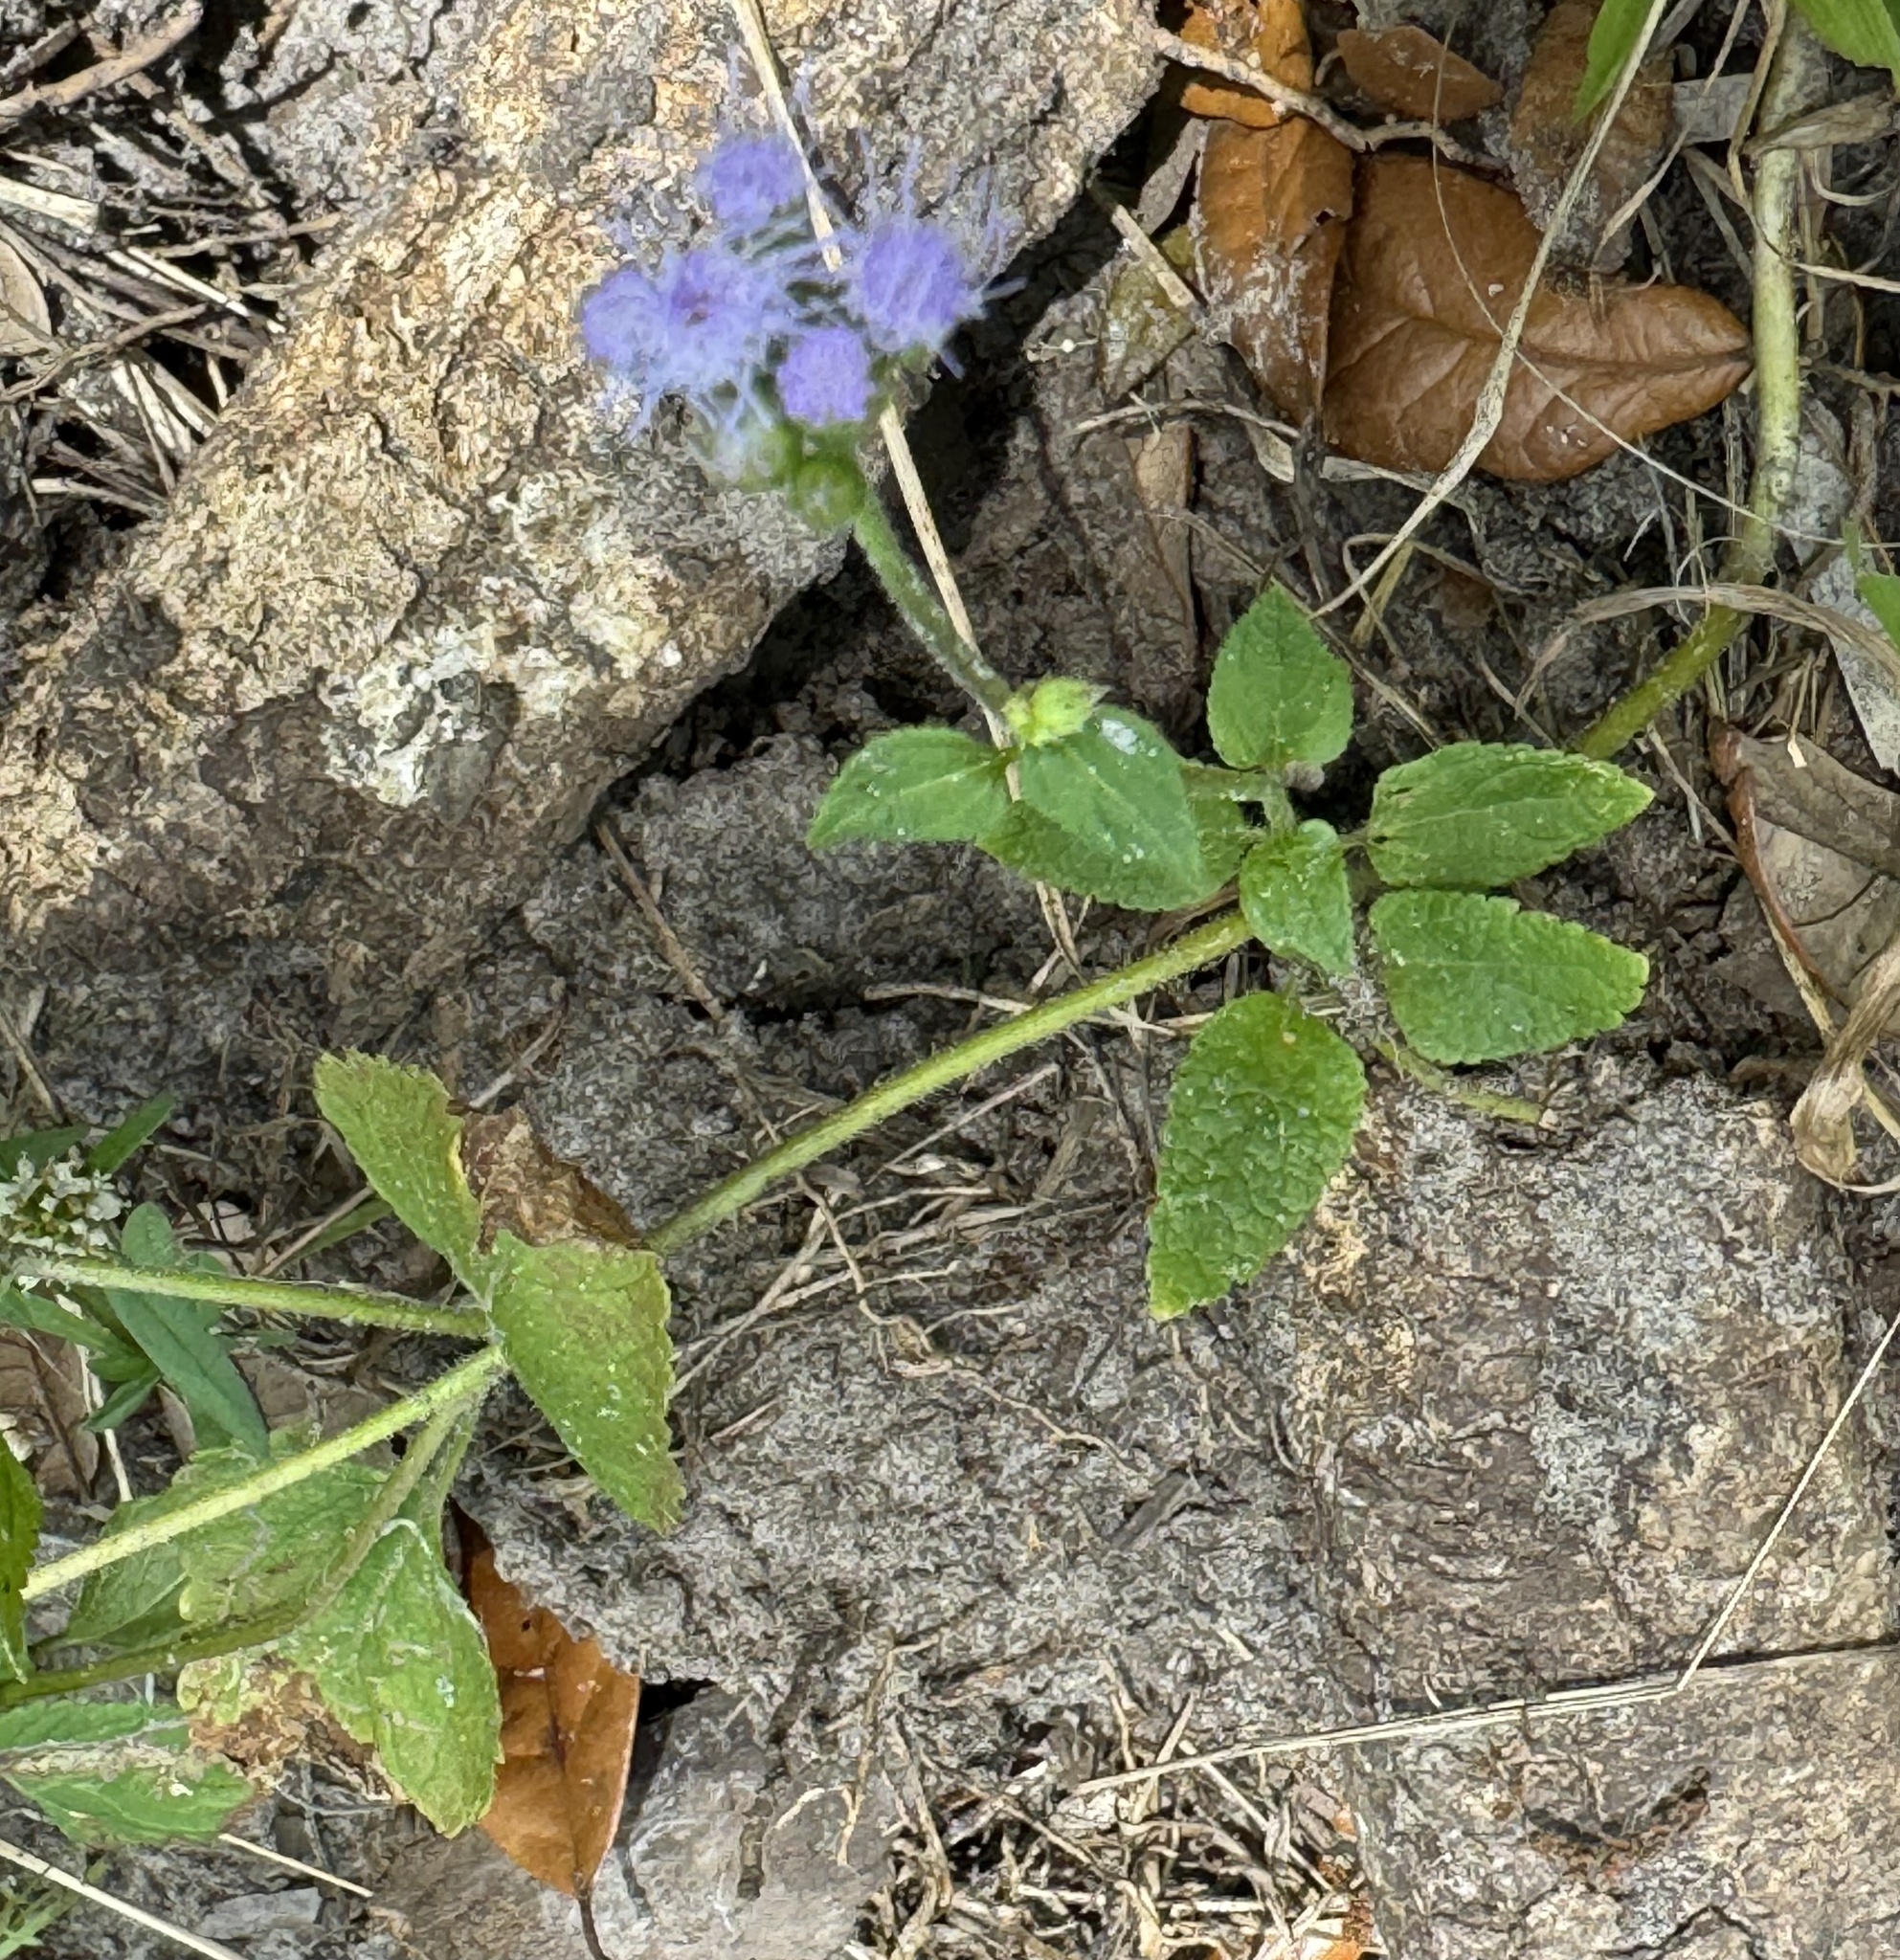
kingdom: Plantae
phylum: Tracheophyta
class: Magnoliopsida
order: Asterales
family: Asteraceae
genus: Ageratum
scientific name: Ageratum houstonianum
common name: Bluemink
